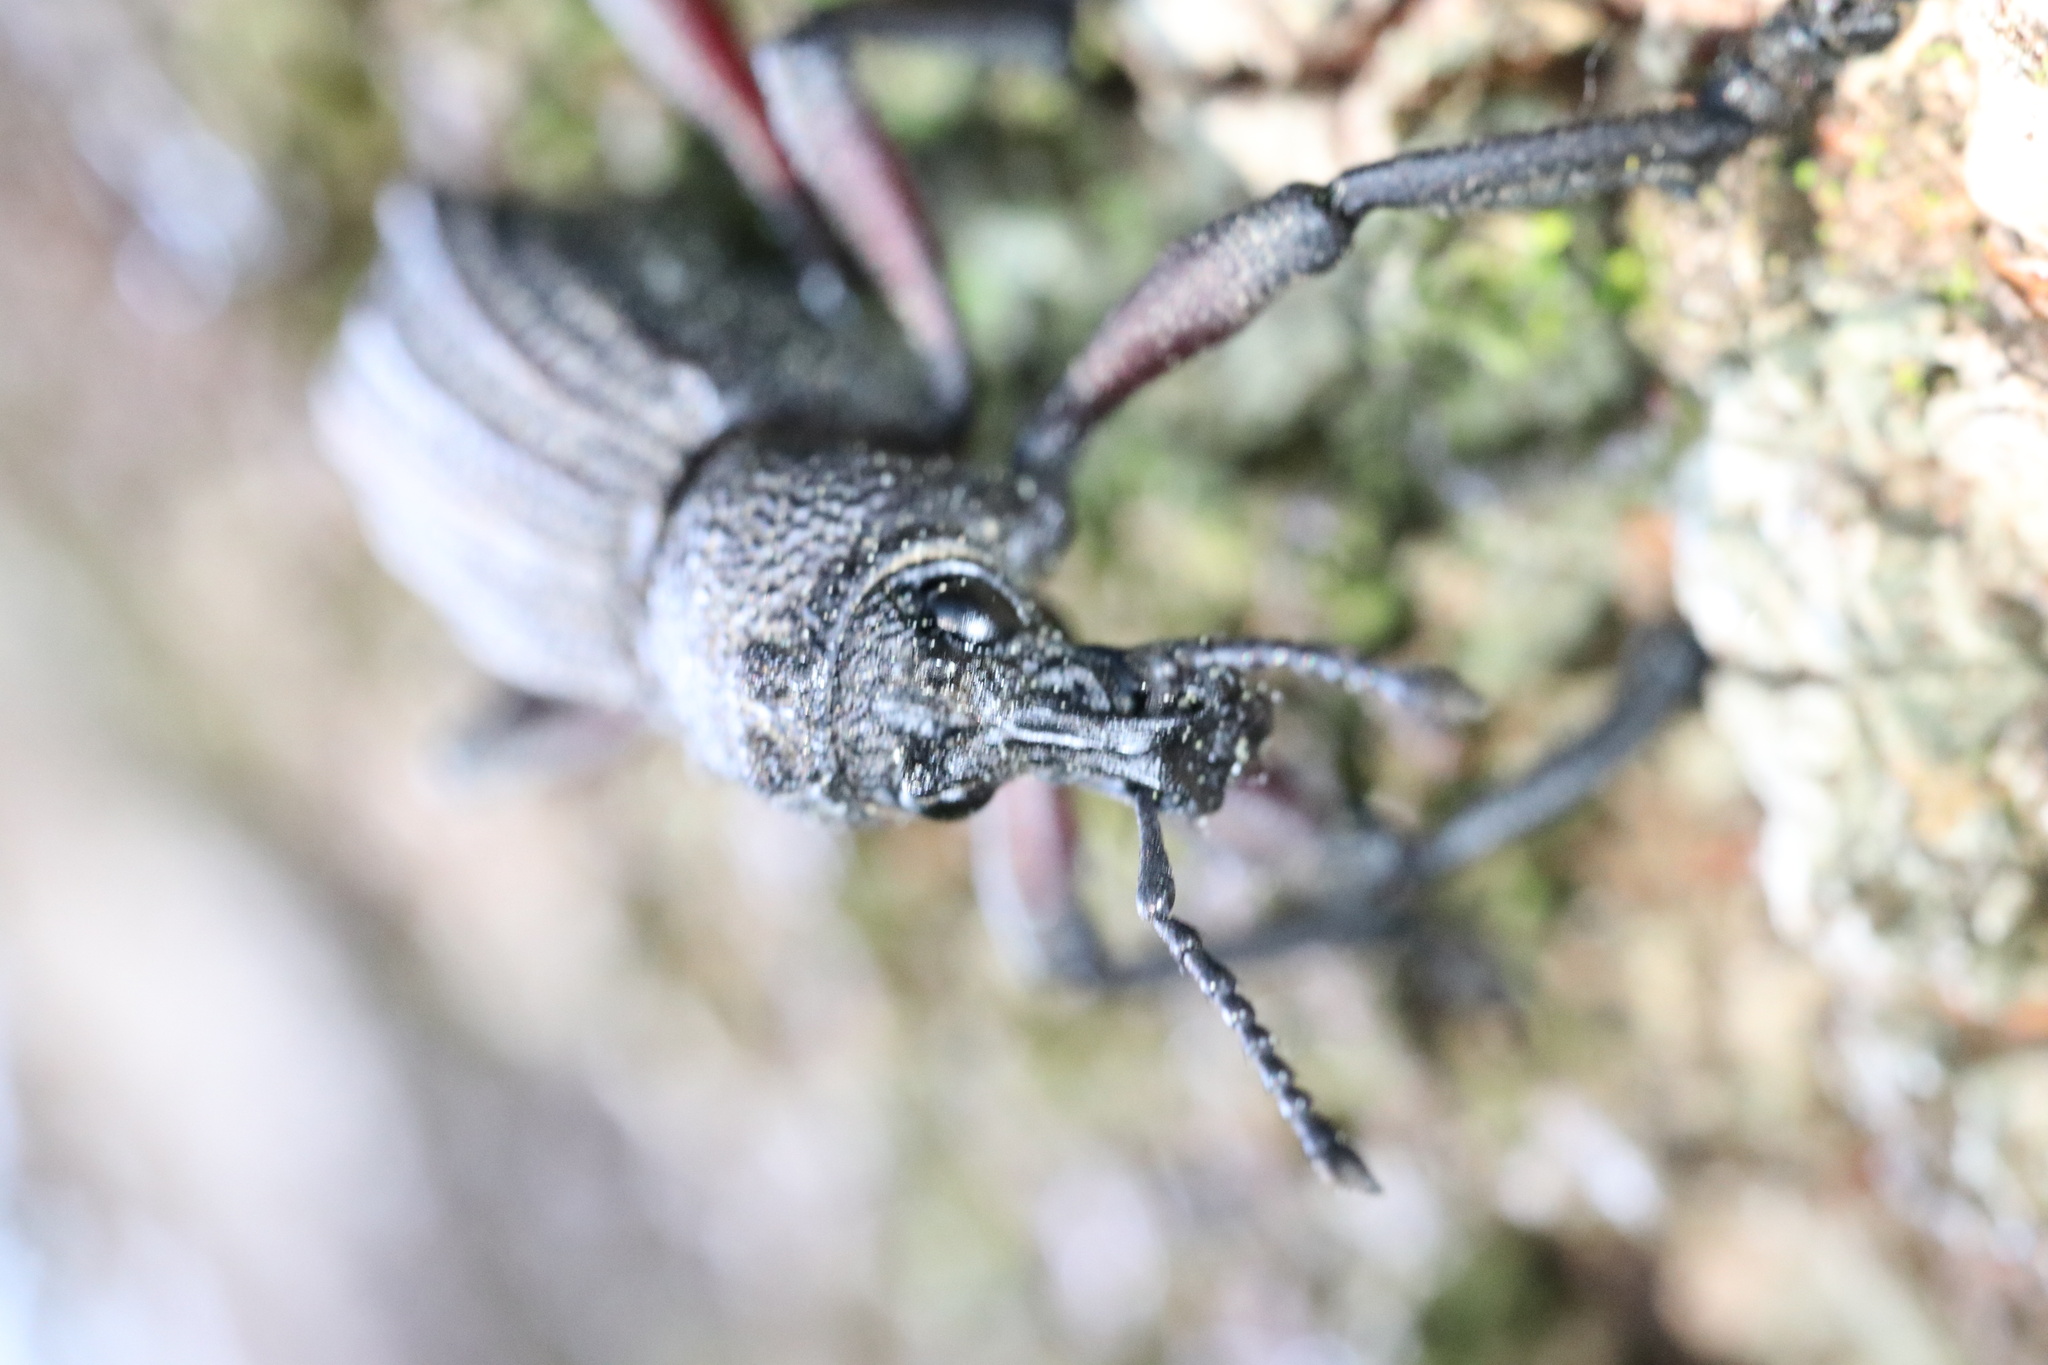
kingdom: Animalia
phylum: Arthropoda
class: Insecta
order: Coleoptera
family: Curculionidae
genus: Aegorhinus
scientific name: Aegorhinus
